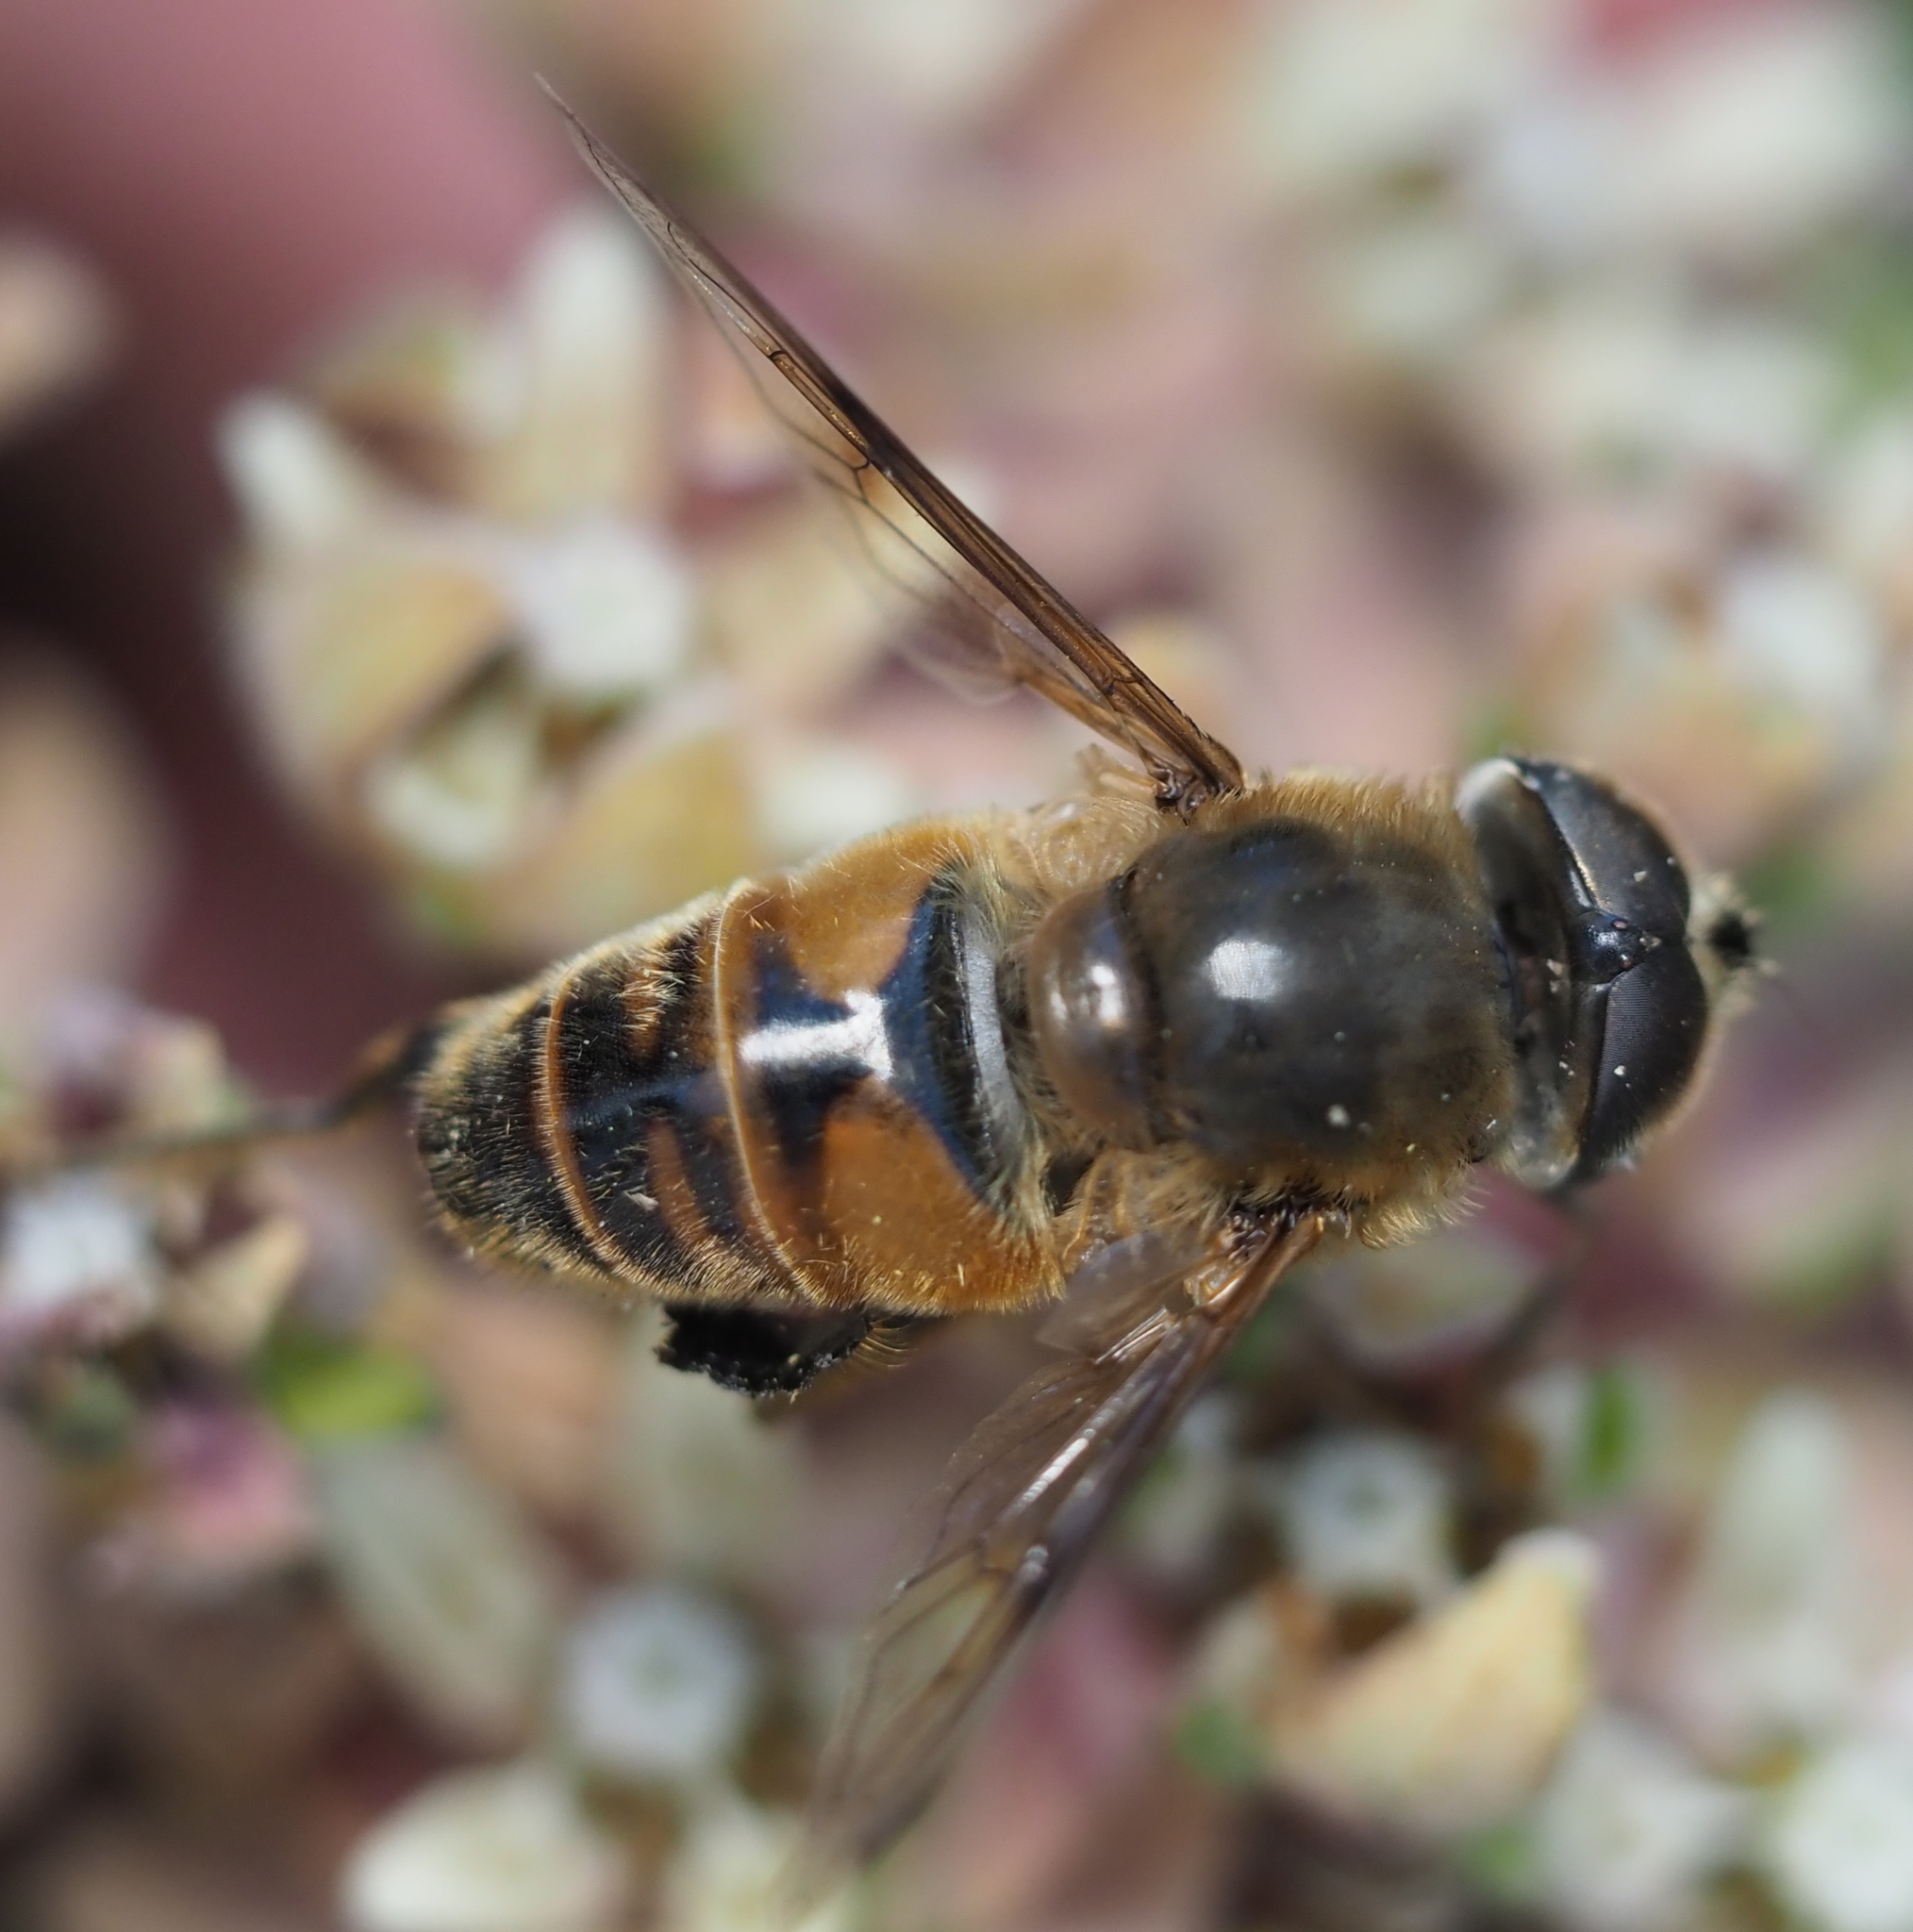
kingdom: Animalia
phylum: Arthropoda
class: Insecta
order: Diptera
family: Syrphidae
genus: Eristalis
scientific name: Eristalis tenax
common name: Drone fly
